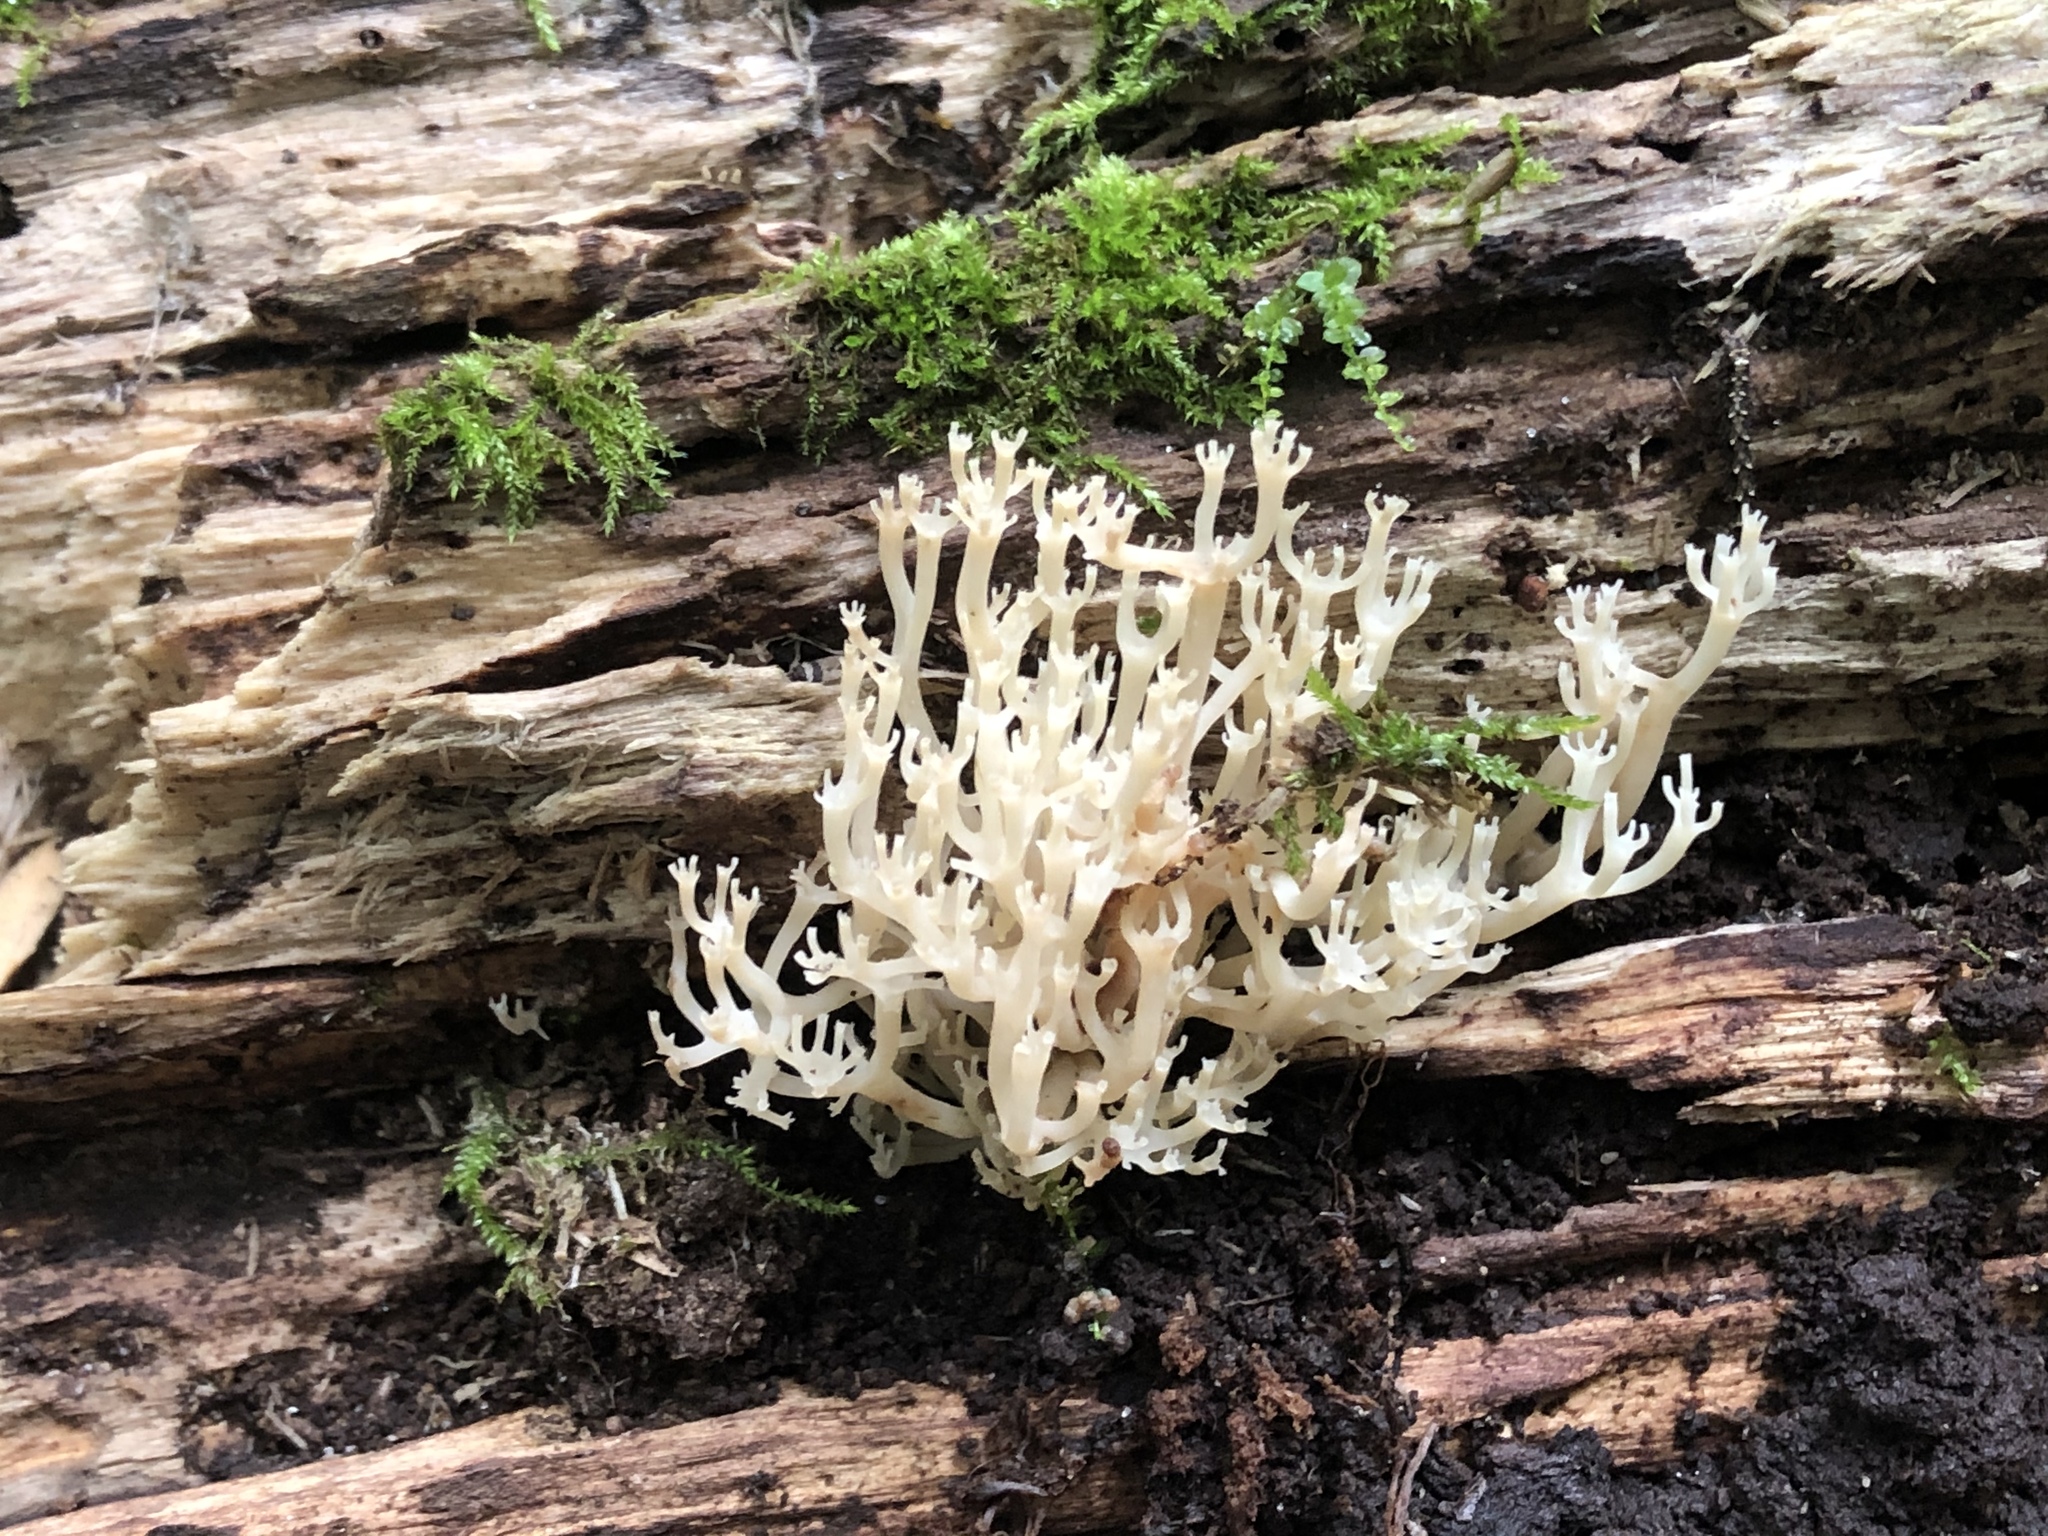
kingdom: Fungi
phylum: Basidiomycota
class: Agaricomycetes
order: Russulales
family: Auriscalpiaceae
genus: Artomyces
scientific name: Artomyces pyxidatus
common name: Crown-tipped coral fungus
